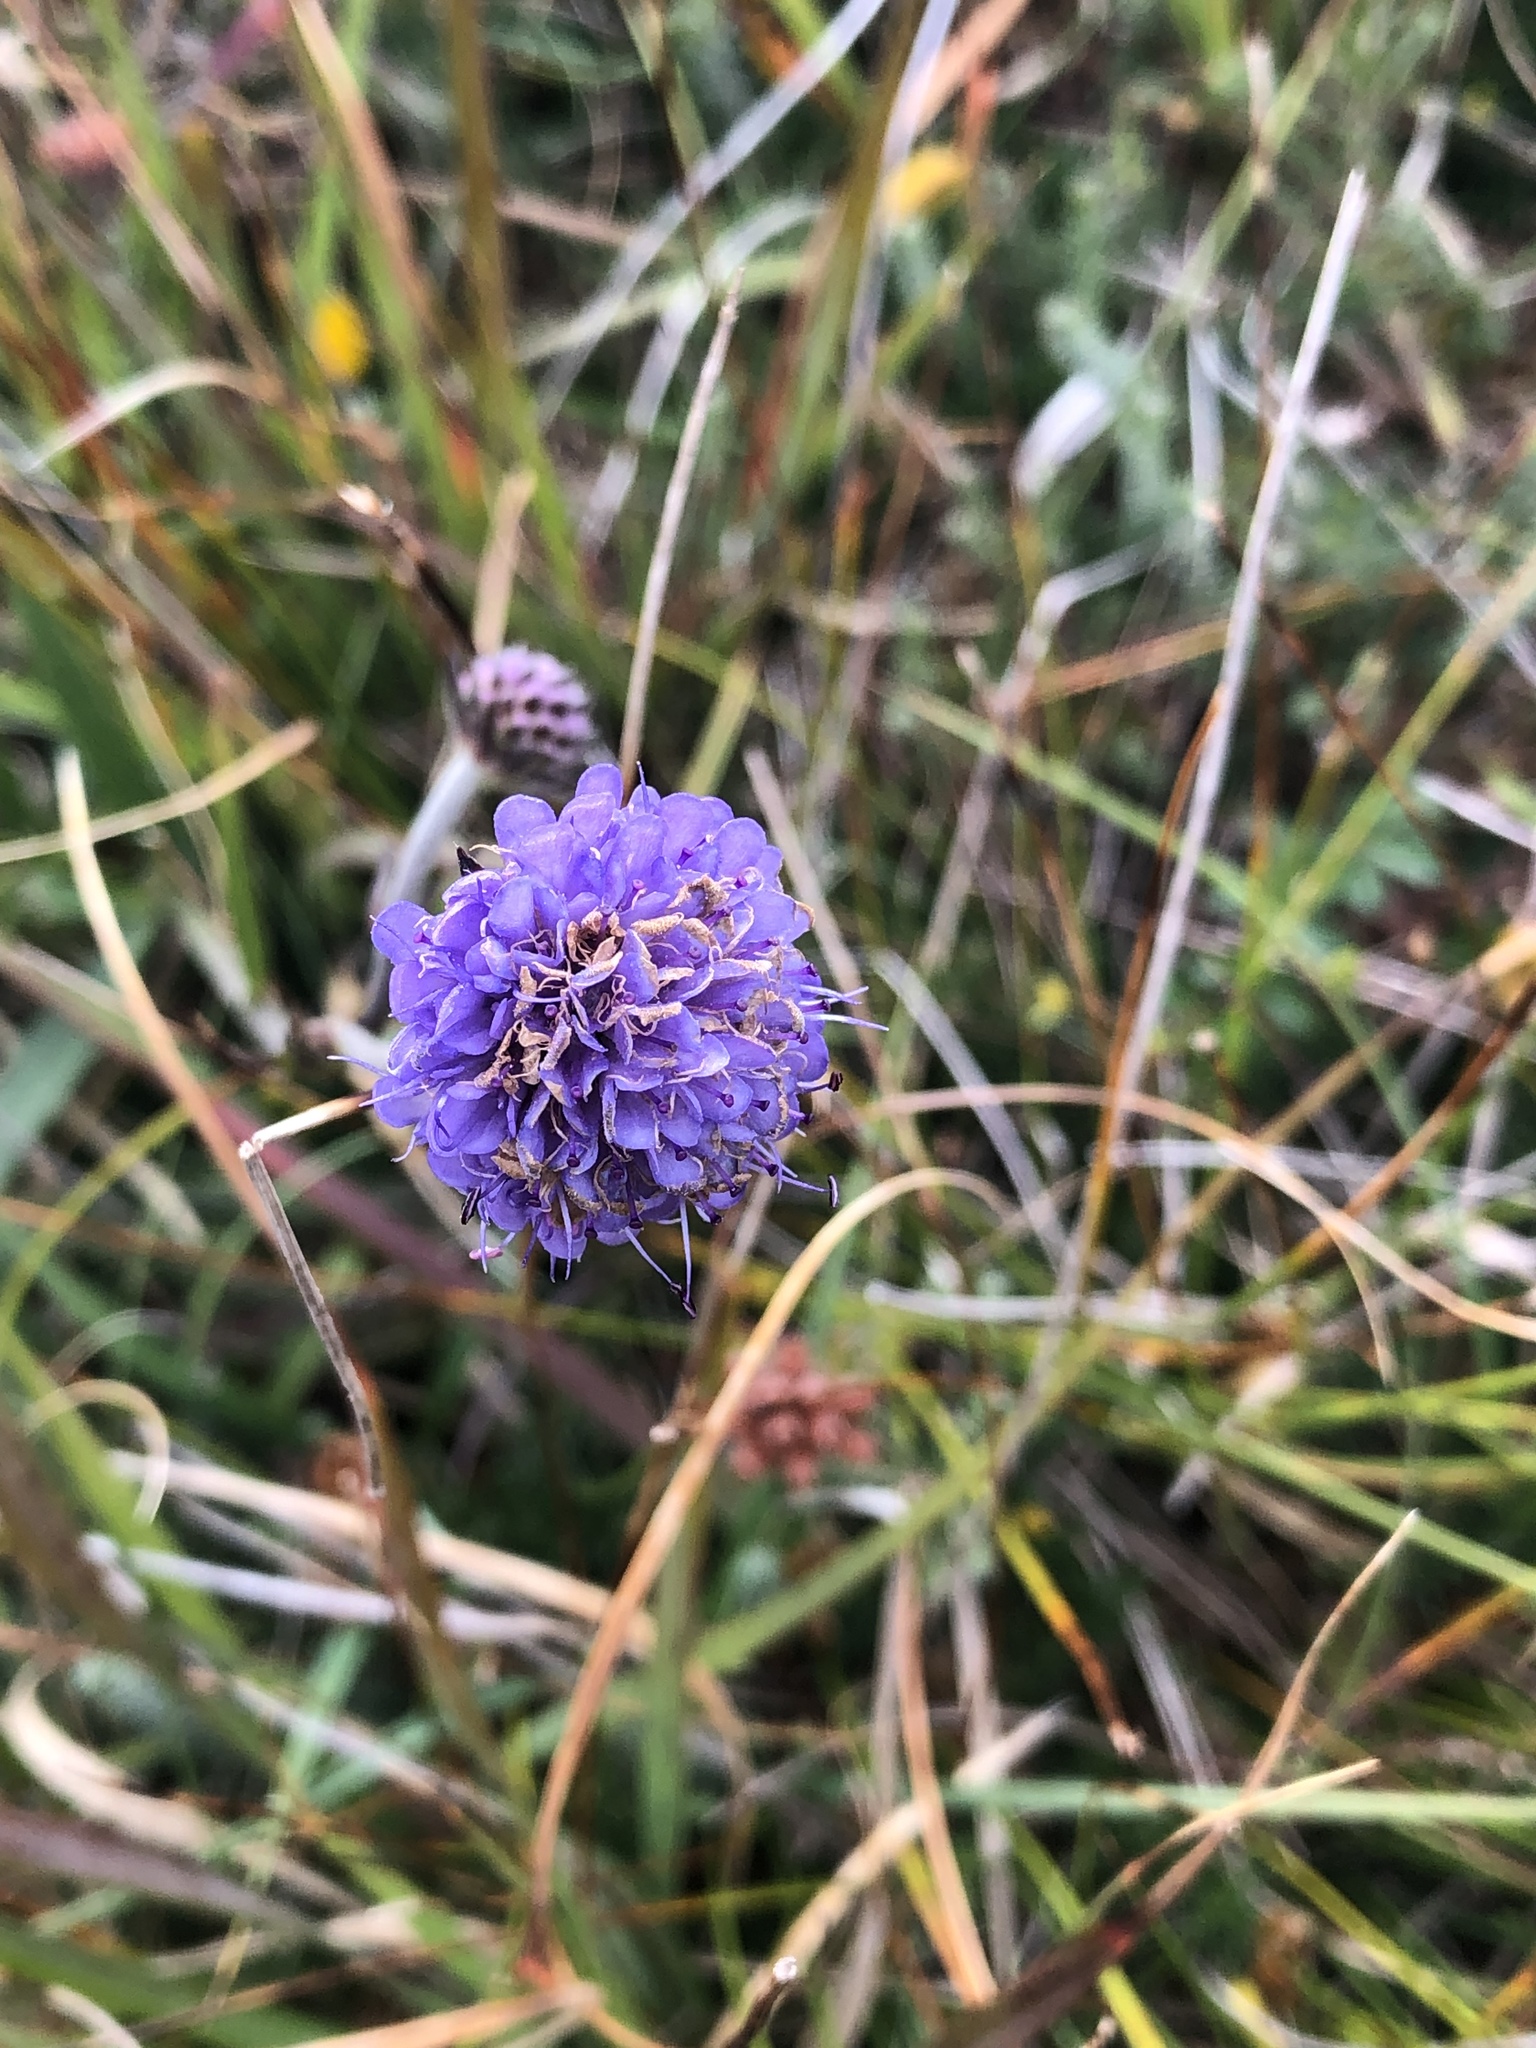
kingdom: Plantae
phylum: Tracheophyta
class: Magnoliopsida
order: Dipsacales
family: Caprifoliaceae
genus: Succisa
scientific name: Succisa pratensis
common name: Devil's-bit
